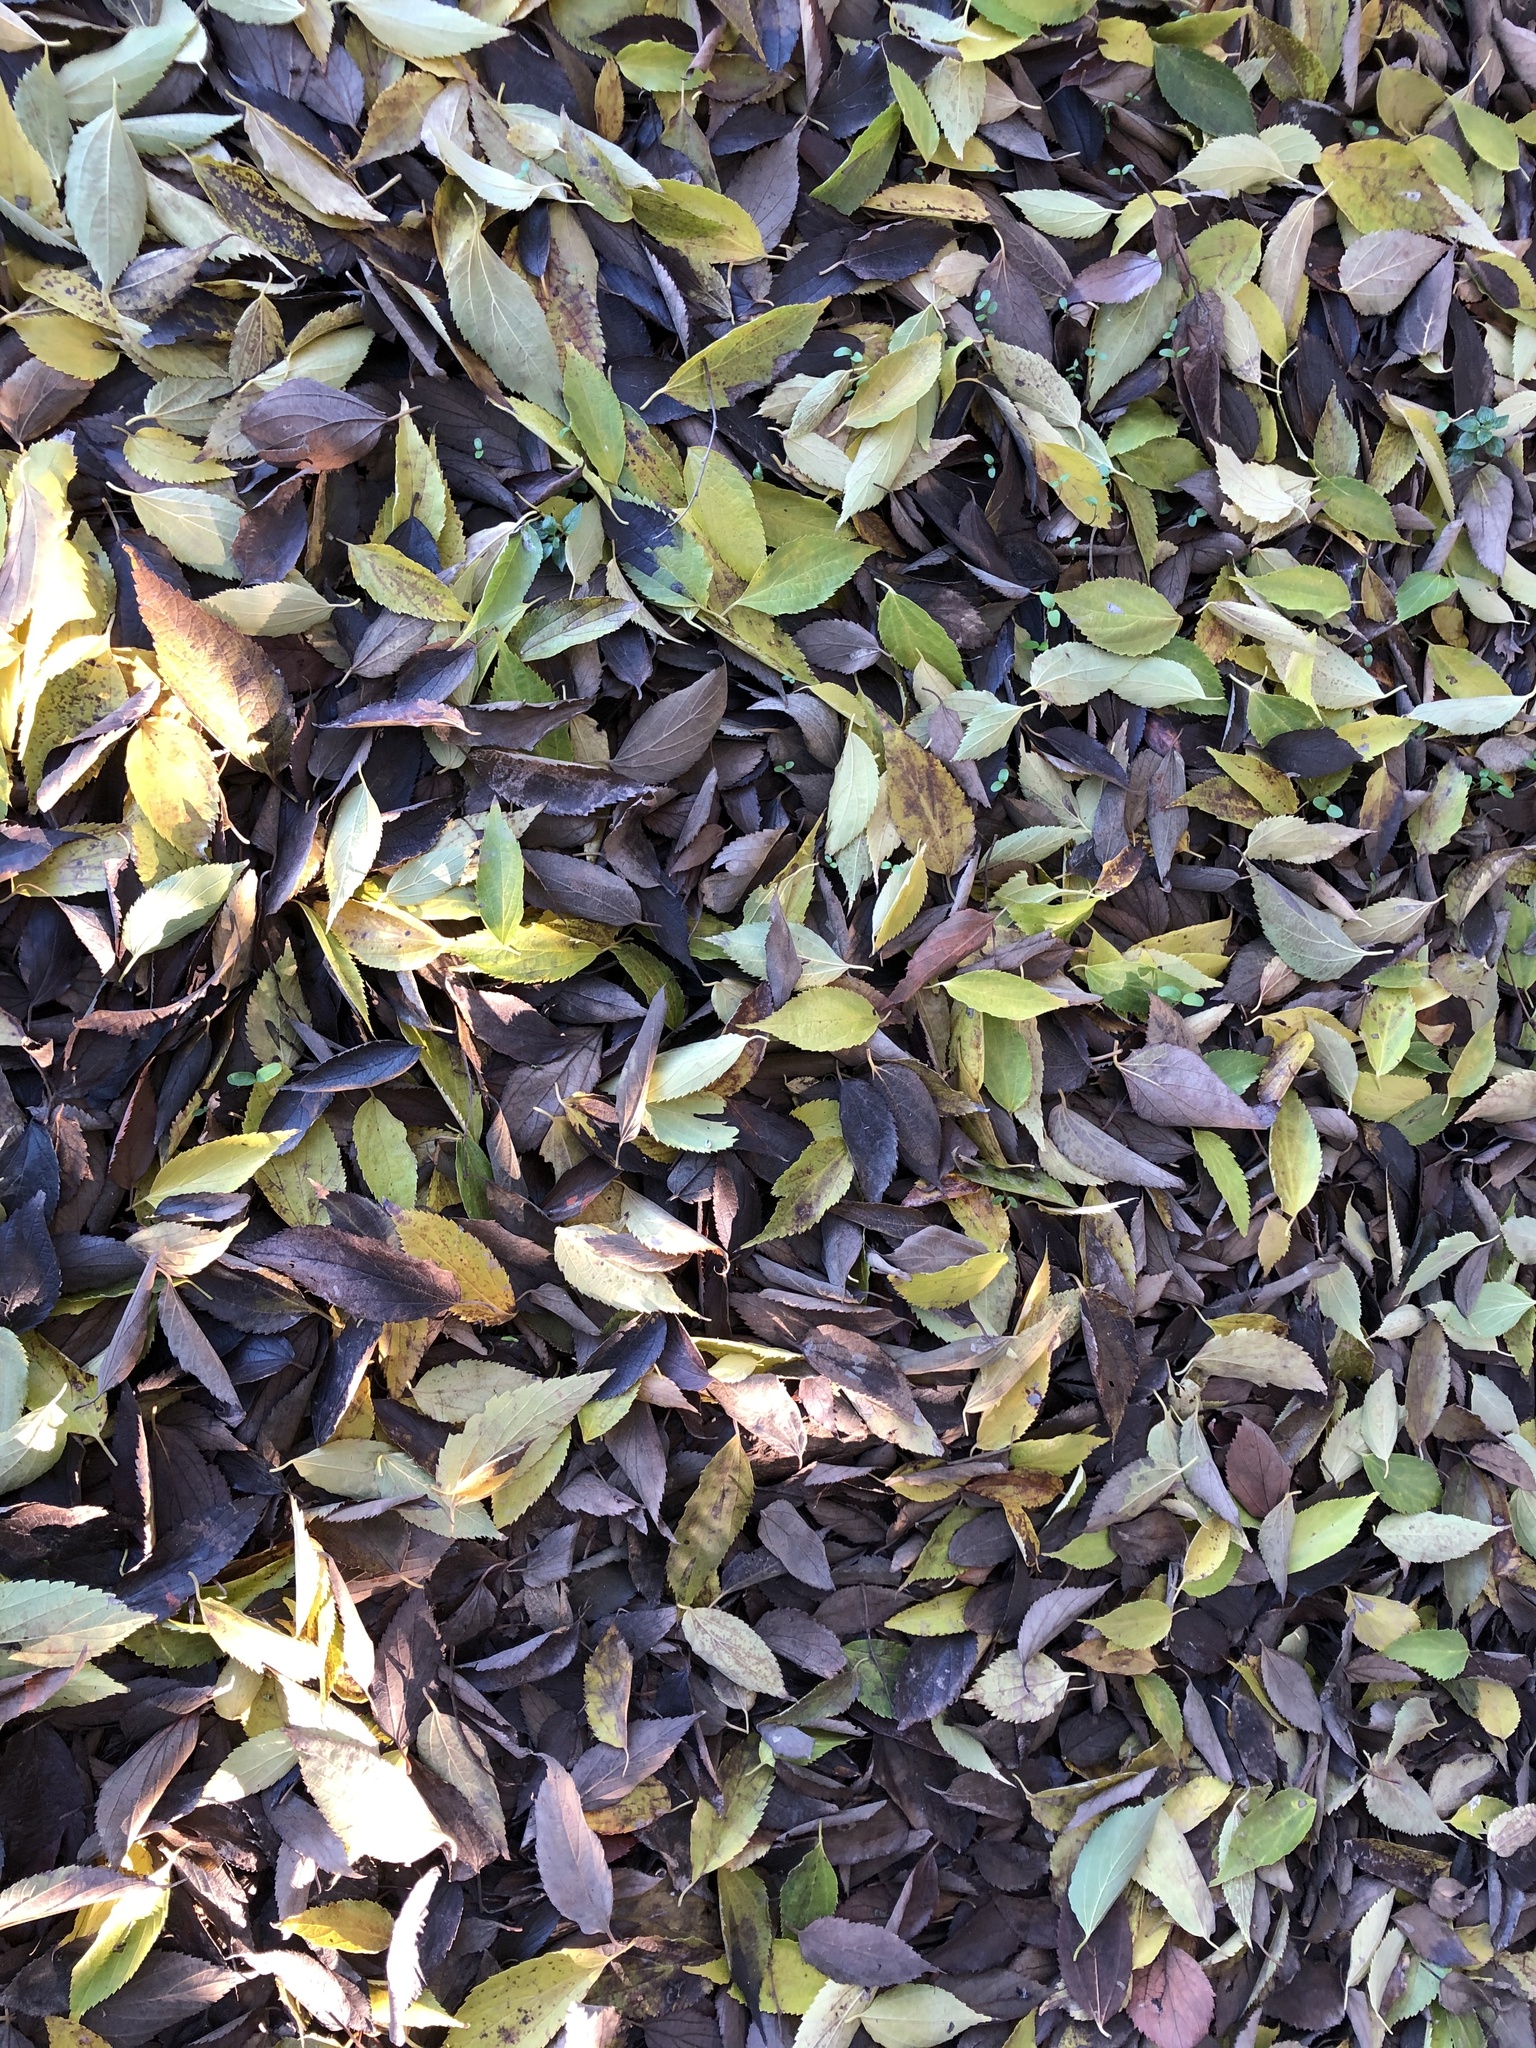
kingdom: Plantae
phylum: Tracheophyta
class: Magnoliopsida
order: Rosales
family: Cannabaceae
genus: Celtis
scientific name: Celtis australis
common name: European hackberry
